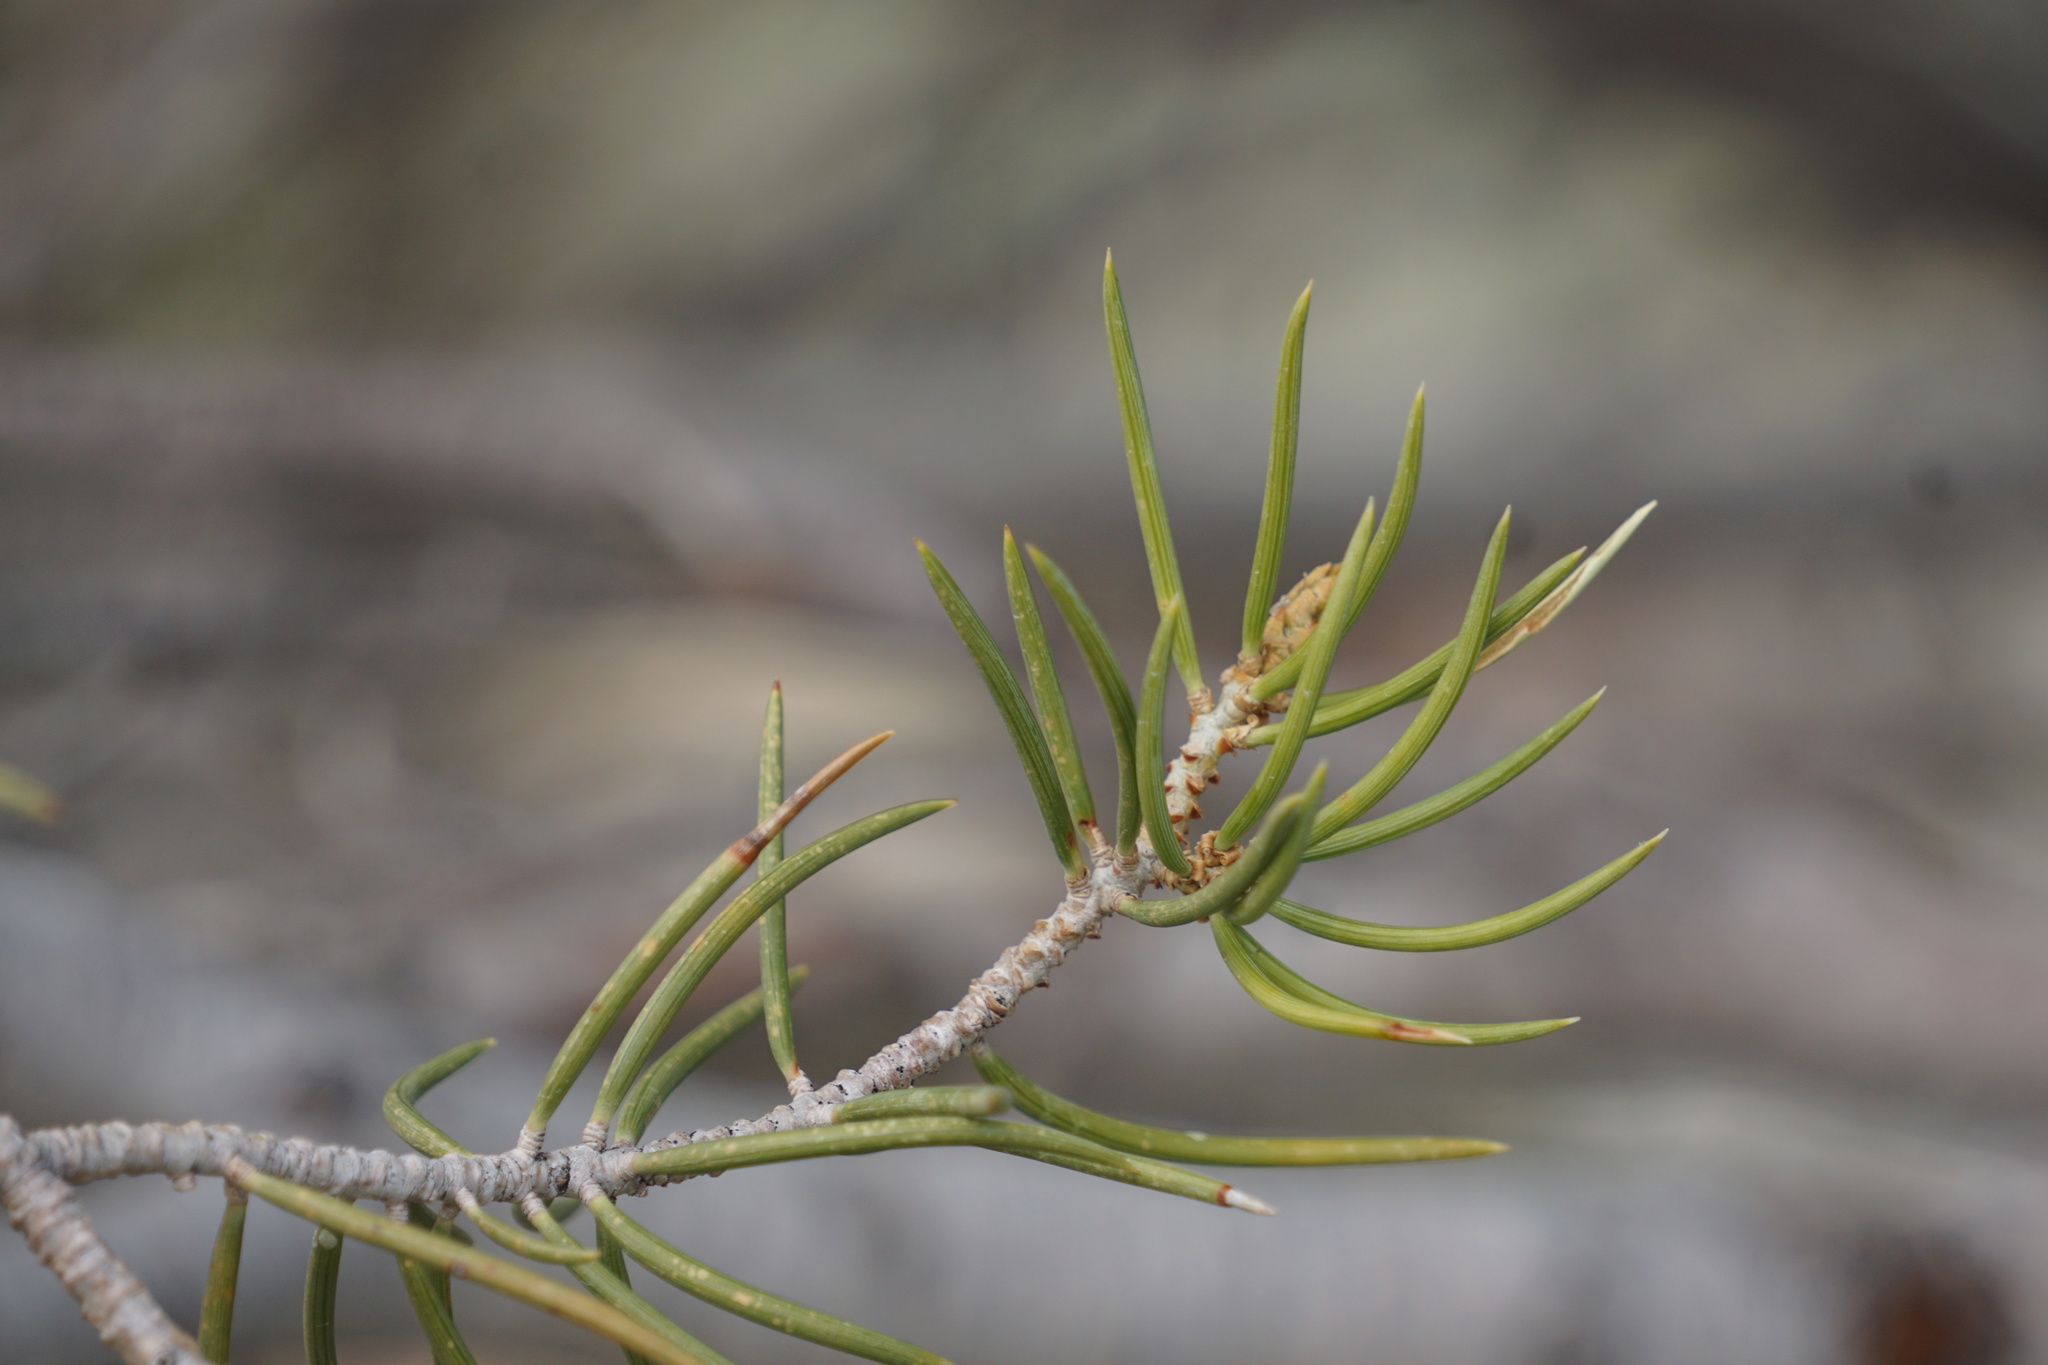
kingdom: Plantae
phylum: Tracheophyta
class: Pinopsida
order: Pinales
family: Pinaceae
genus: Pinus
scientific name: Pinus monophylla
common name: One-leaved nut pine
